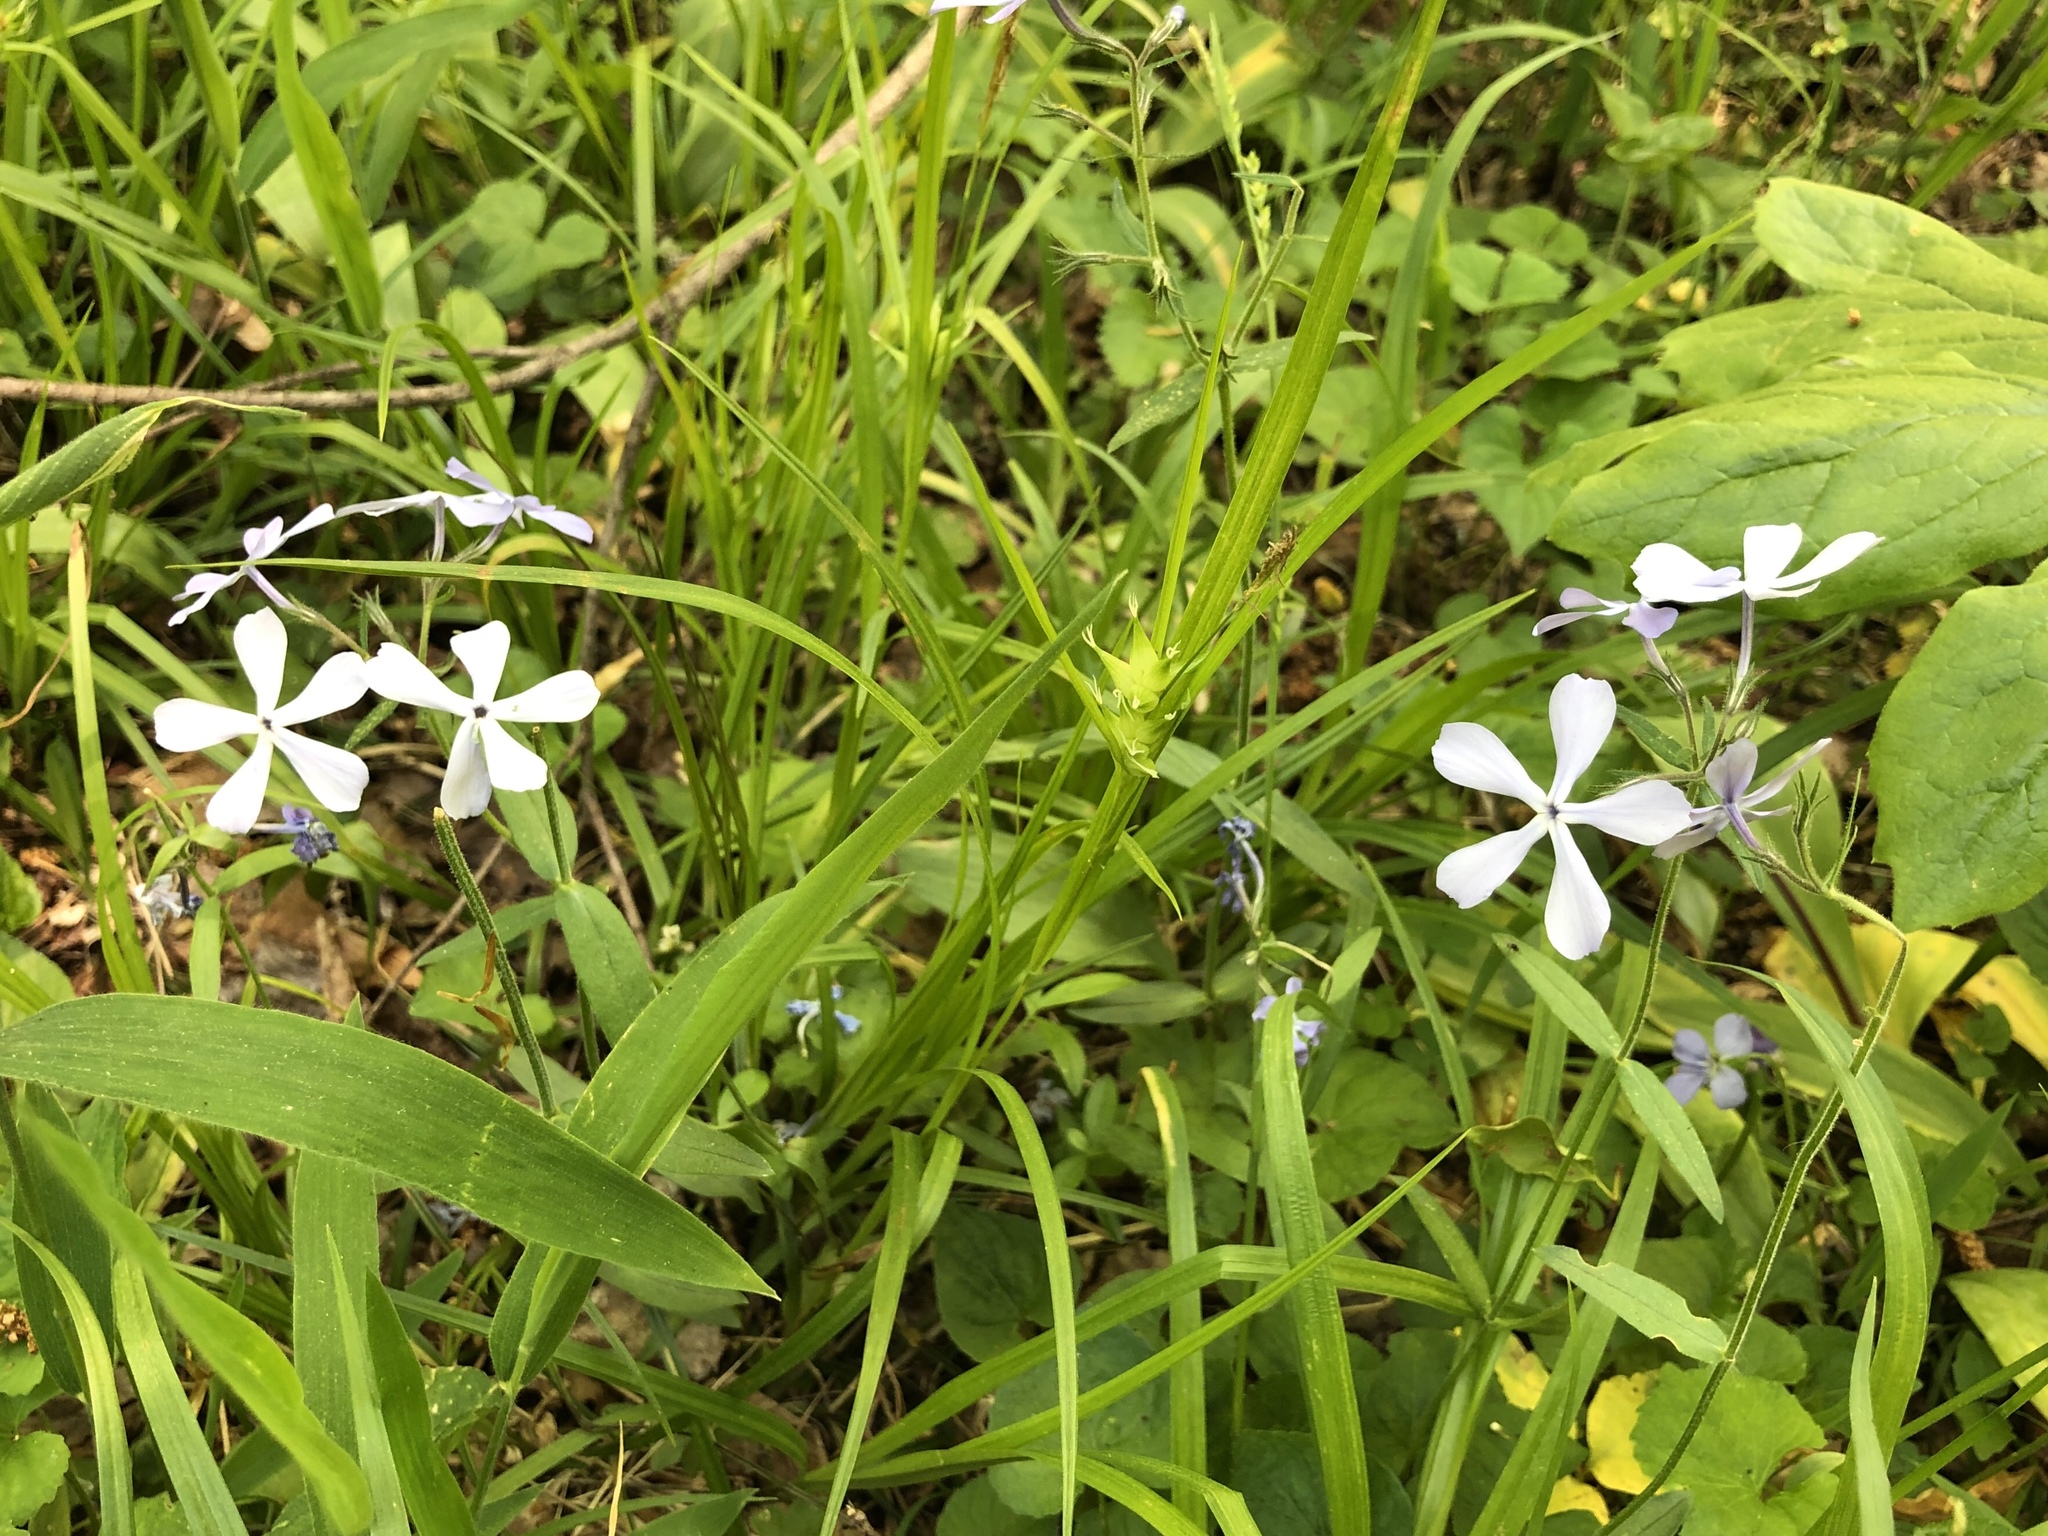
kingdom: Plantae
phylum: Tracheophyta
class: Magnoliopsida
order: Ericales
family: Polemoniaceae
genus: Phlox
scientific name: Phlox divaricata
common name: Blue phlox
